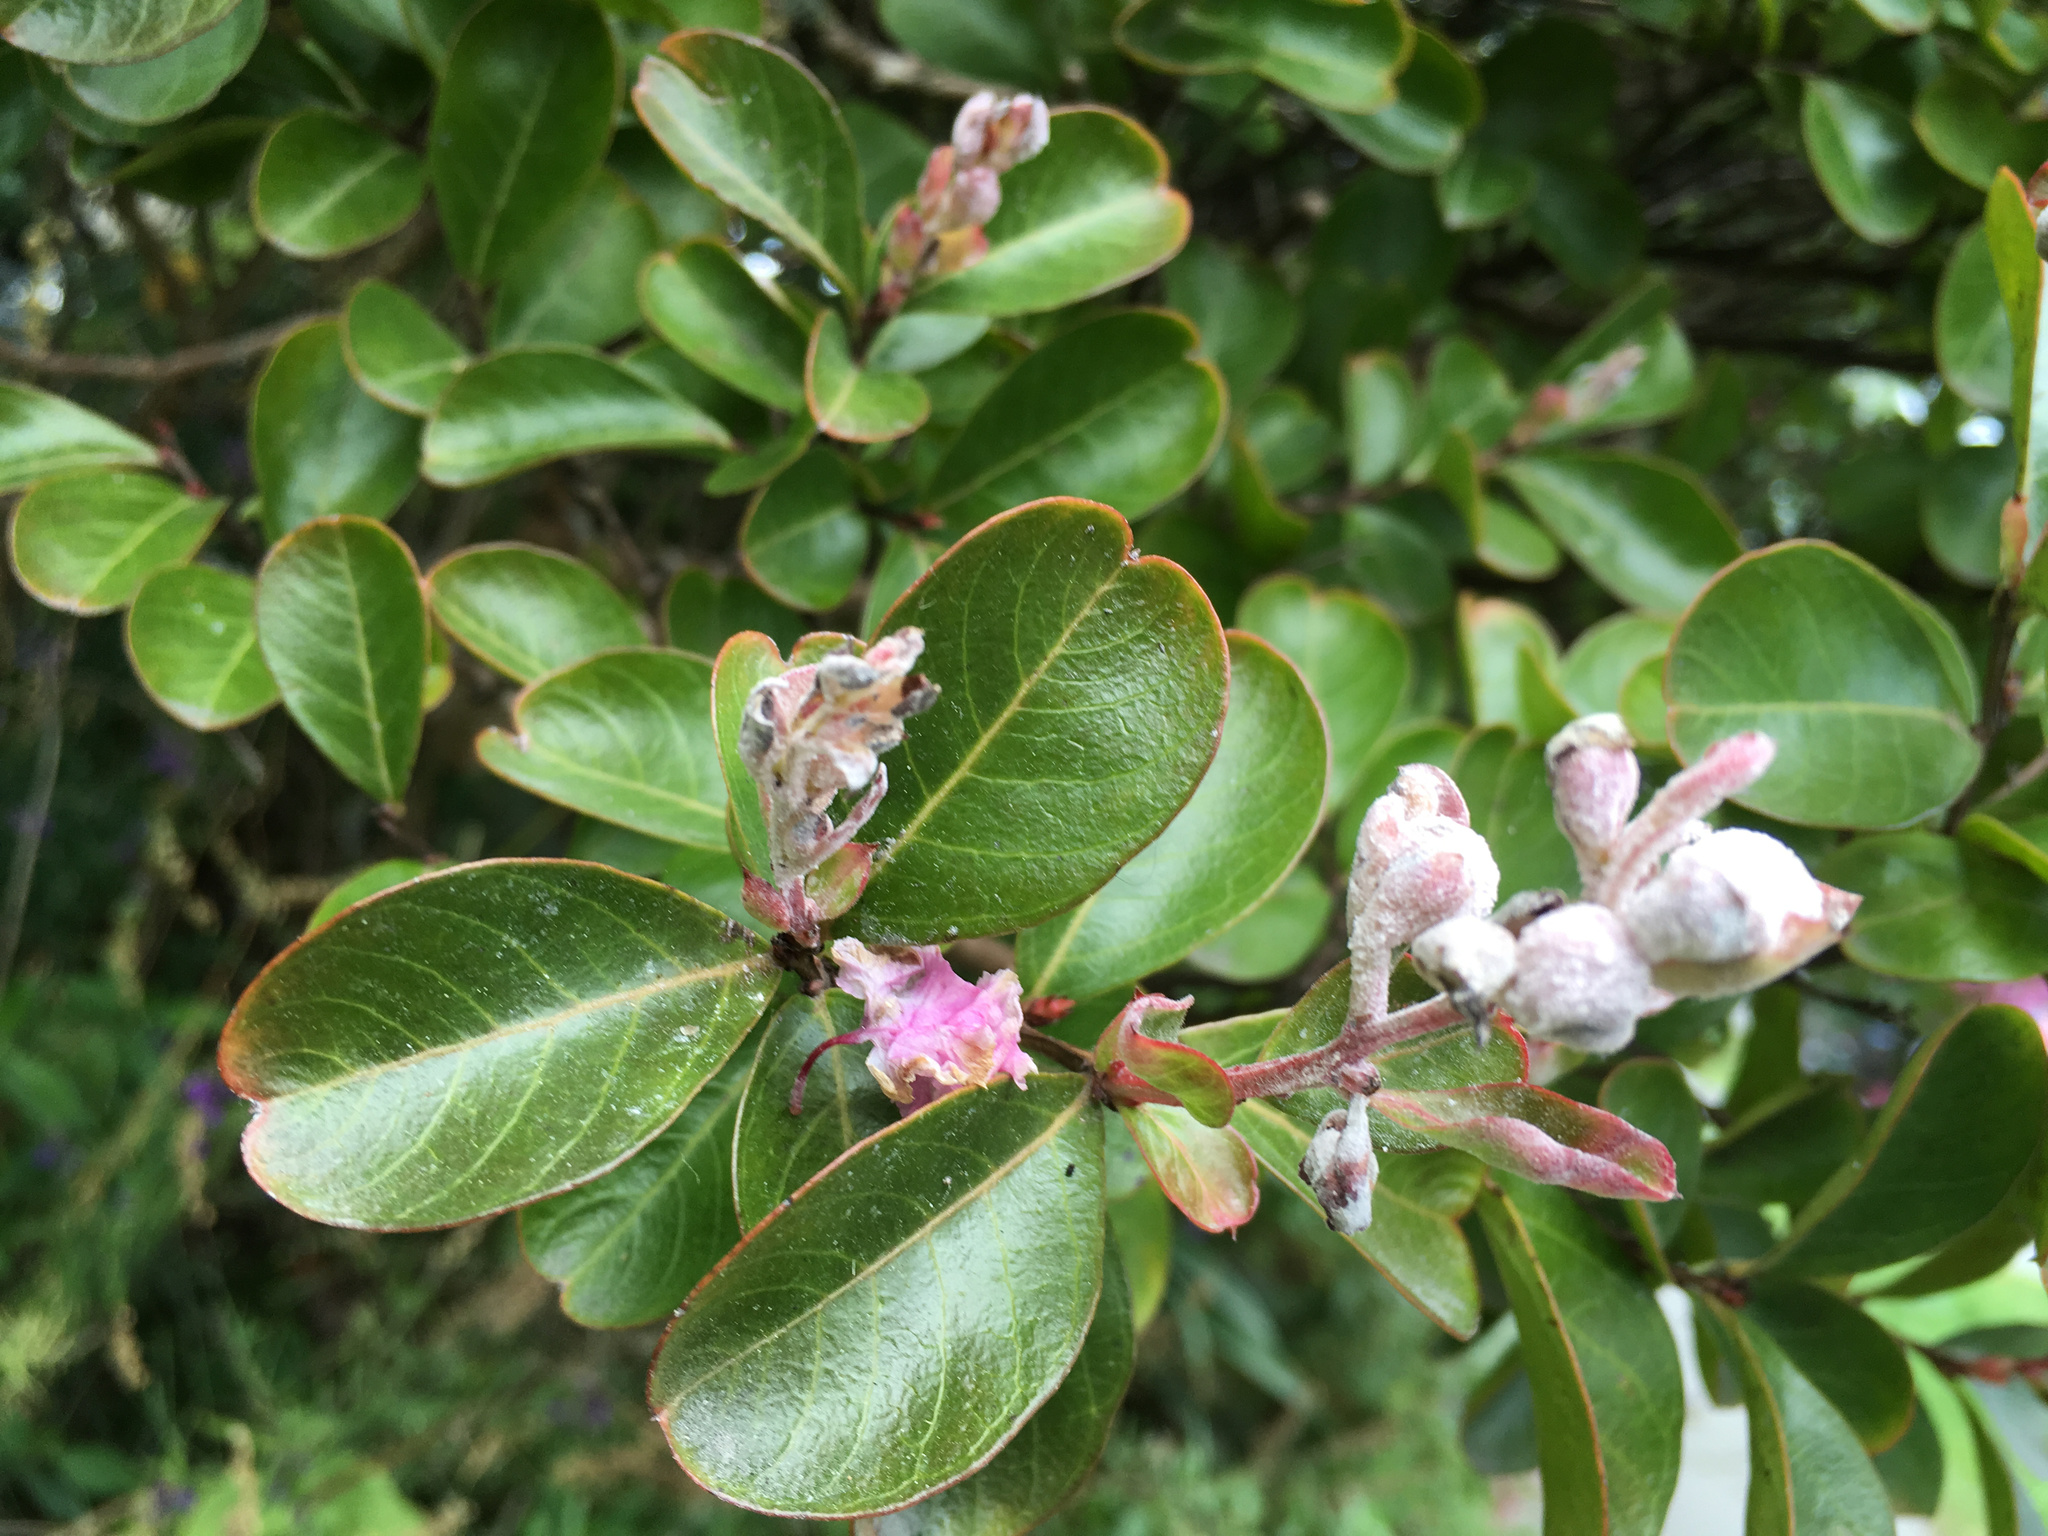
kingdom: Fungi
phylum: Ascomycota
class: Leotiomycetes
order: Helotiales
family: Erysiphaceae
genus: Erysiphe
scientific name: Erysiphe australiana
